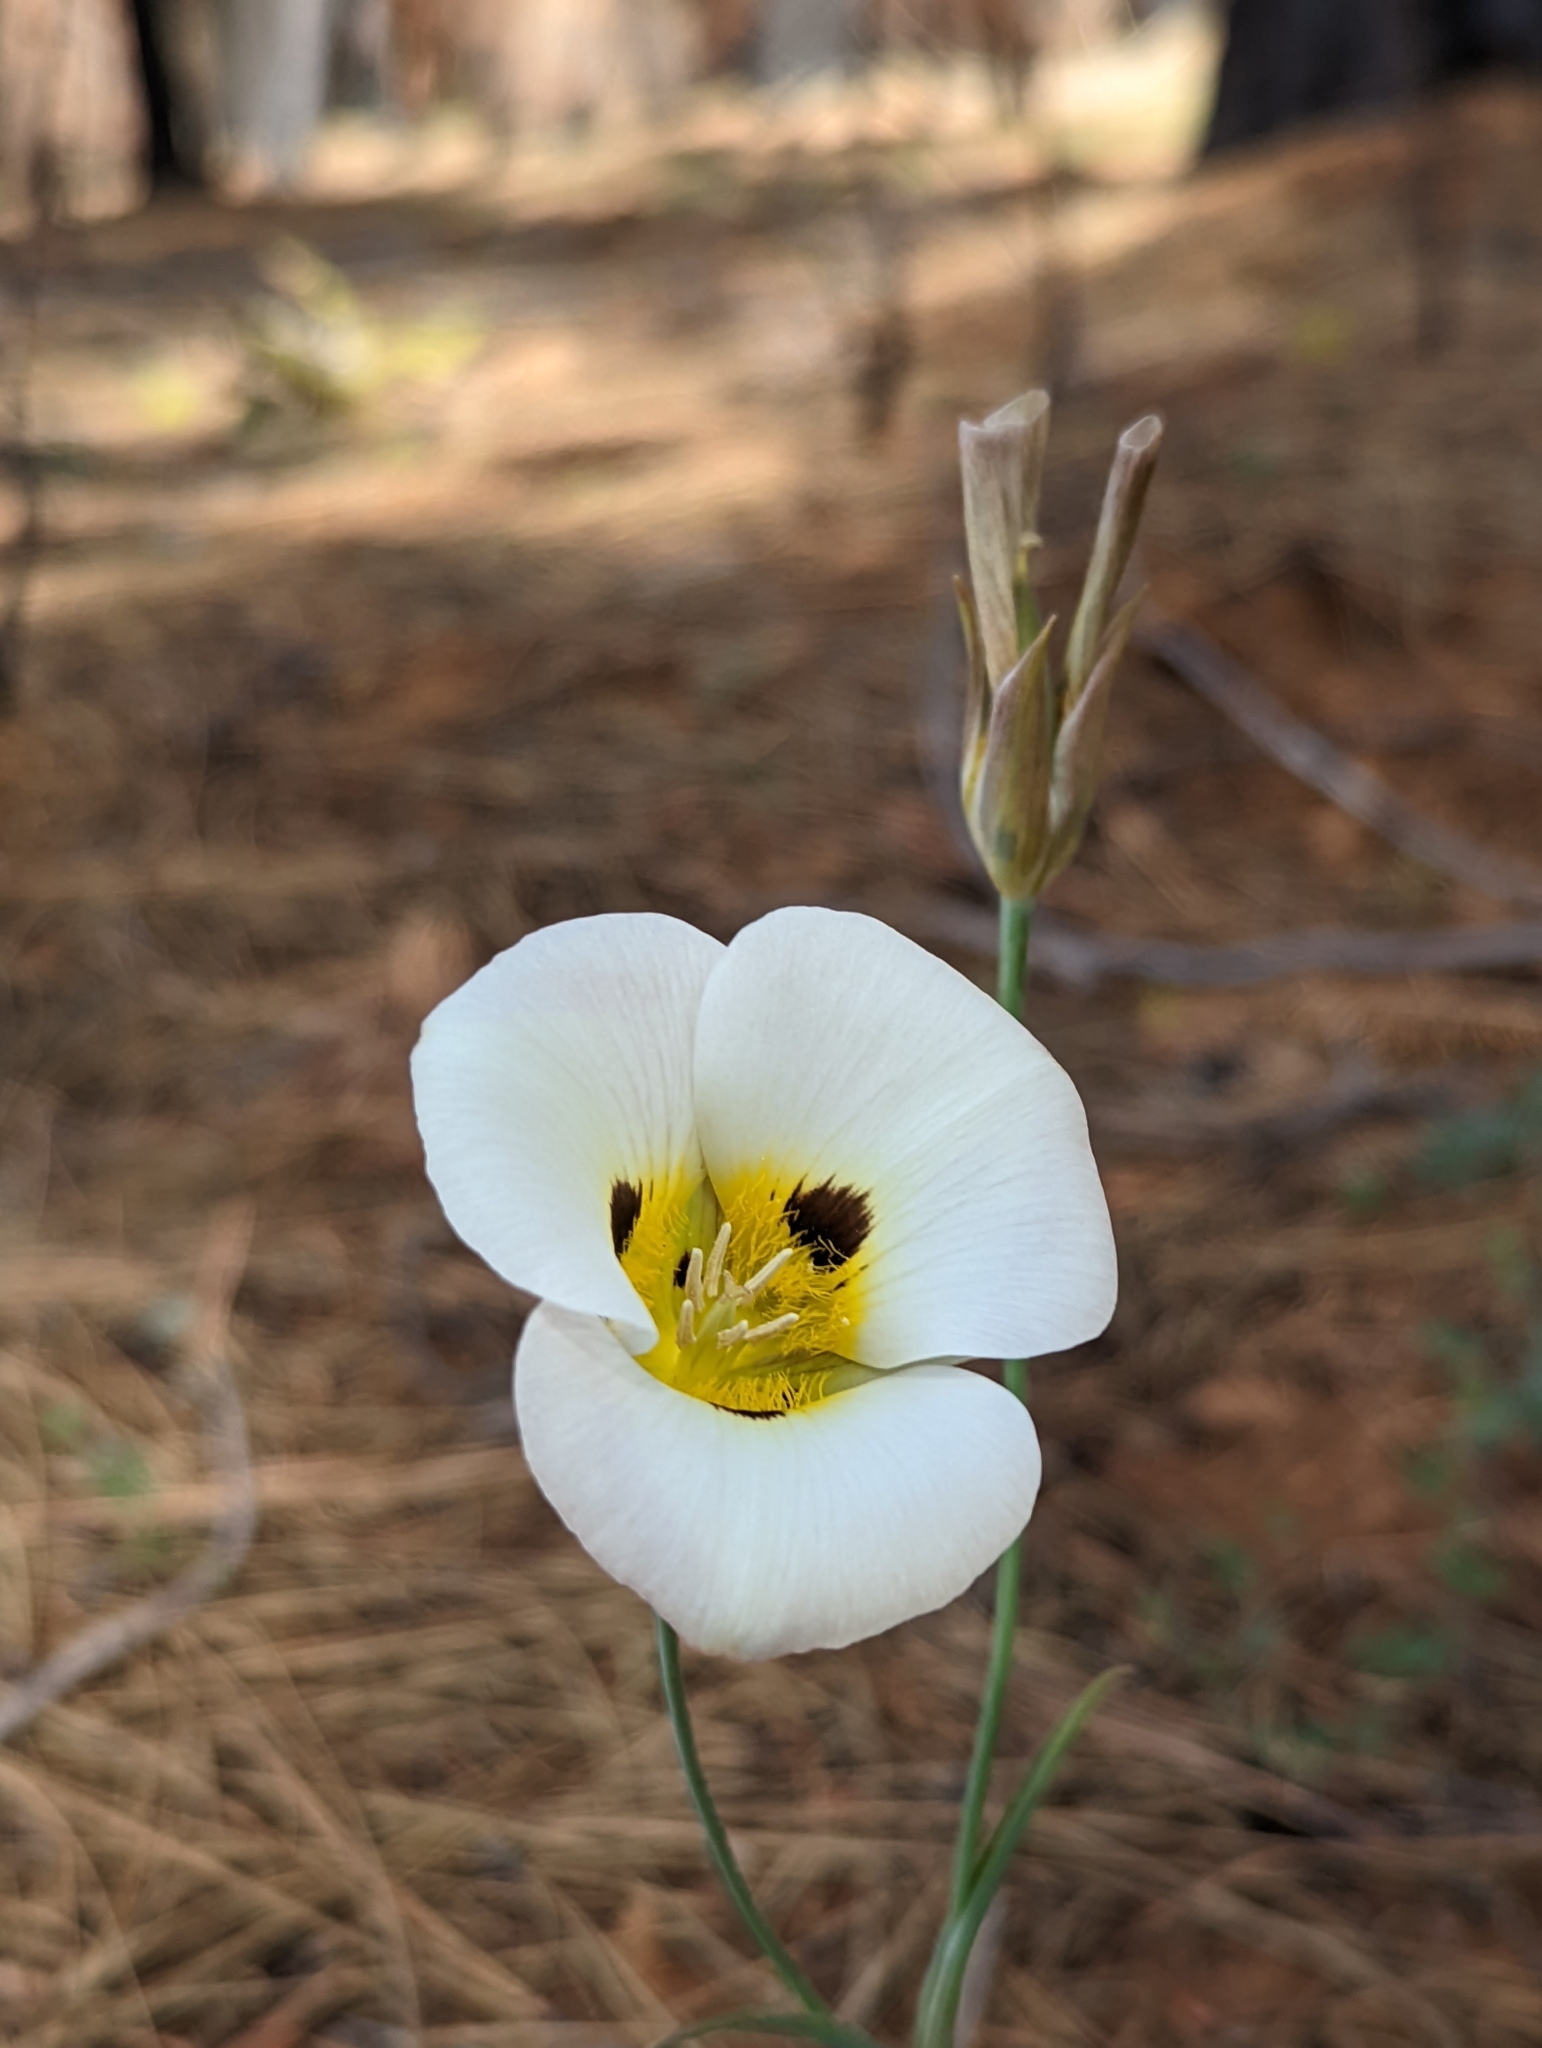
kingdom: Plantae
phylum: Tracheophyta
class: Liliopsida
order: Liliales
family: Liliaceae
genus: Calochortus
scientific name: Calochortus leichtlinii
